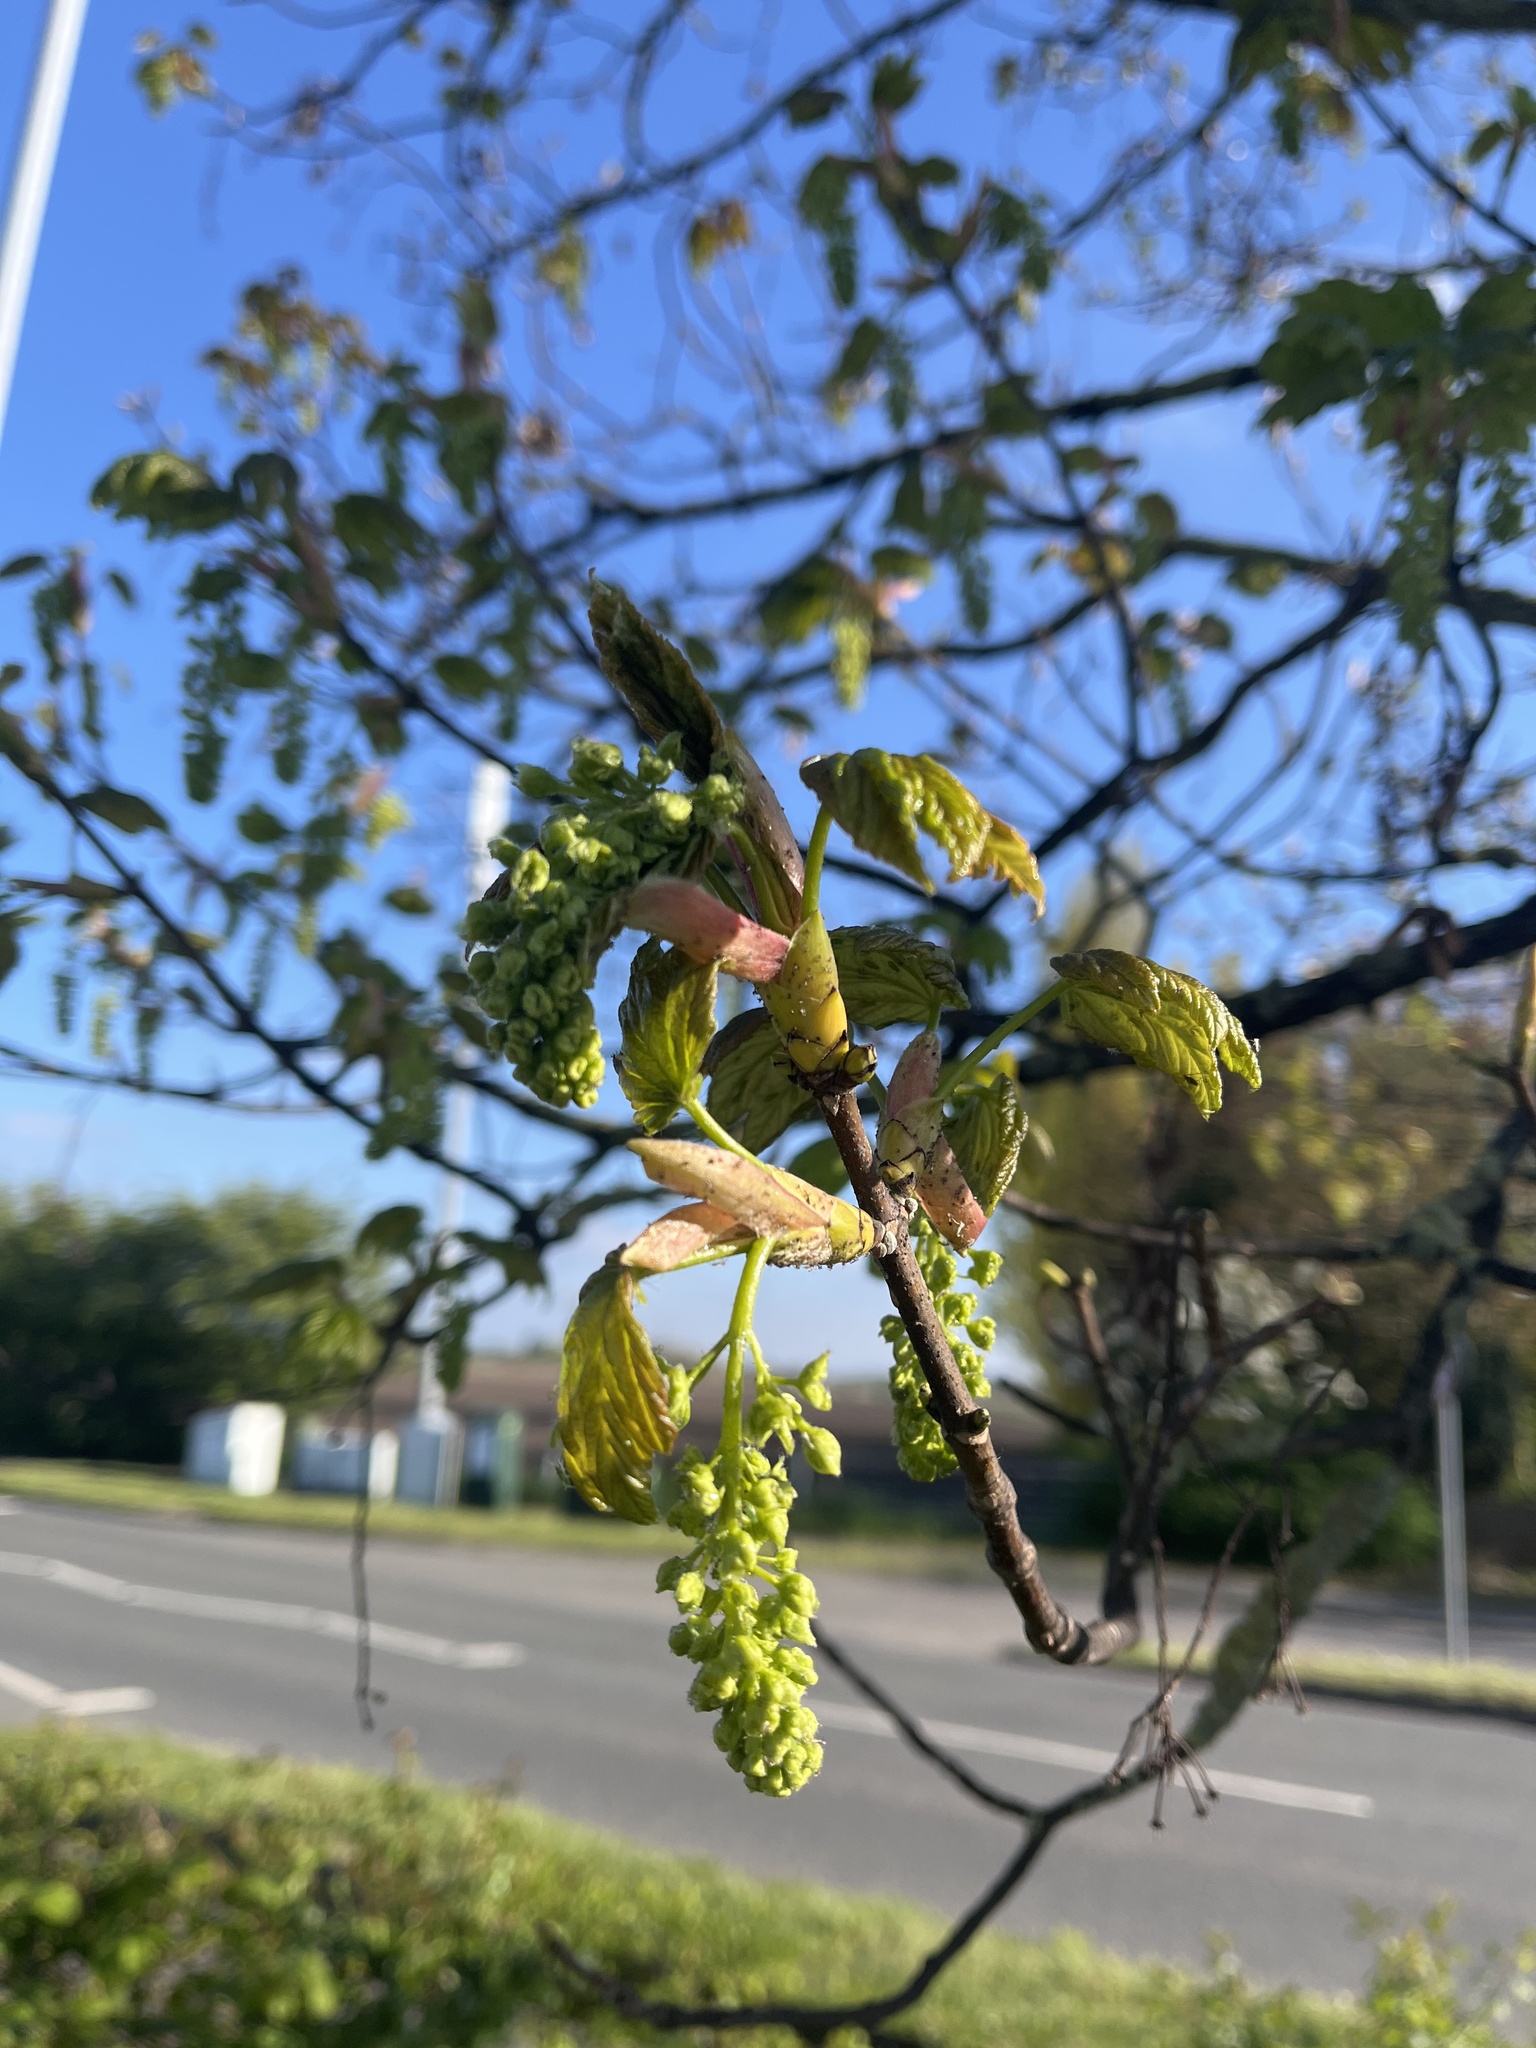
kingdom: Plantae
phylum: Tracheophyta
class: Magnoliopsida
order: Sapindales
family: Sapindaceae
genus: Acer
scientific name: Acer pseudoplatanus
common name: Sycamore
